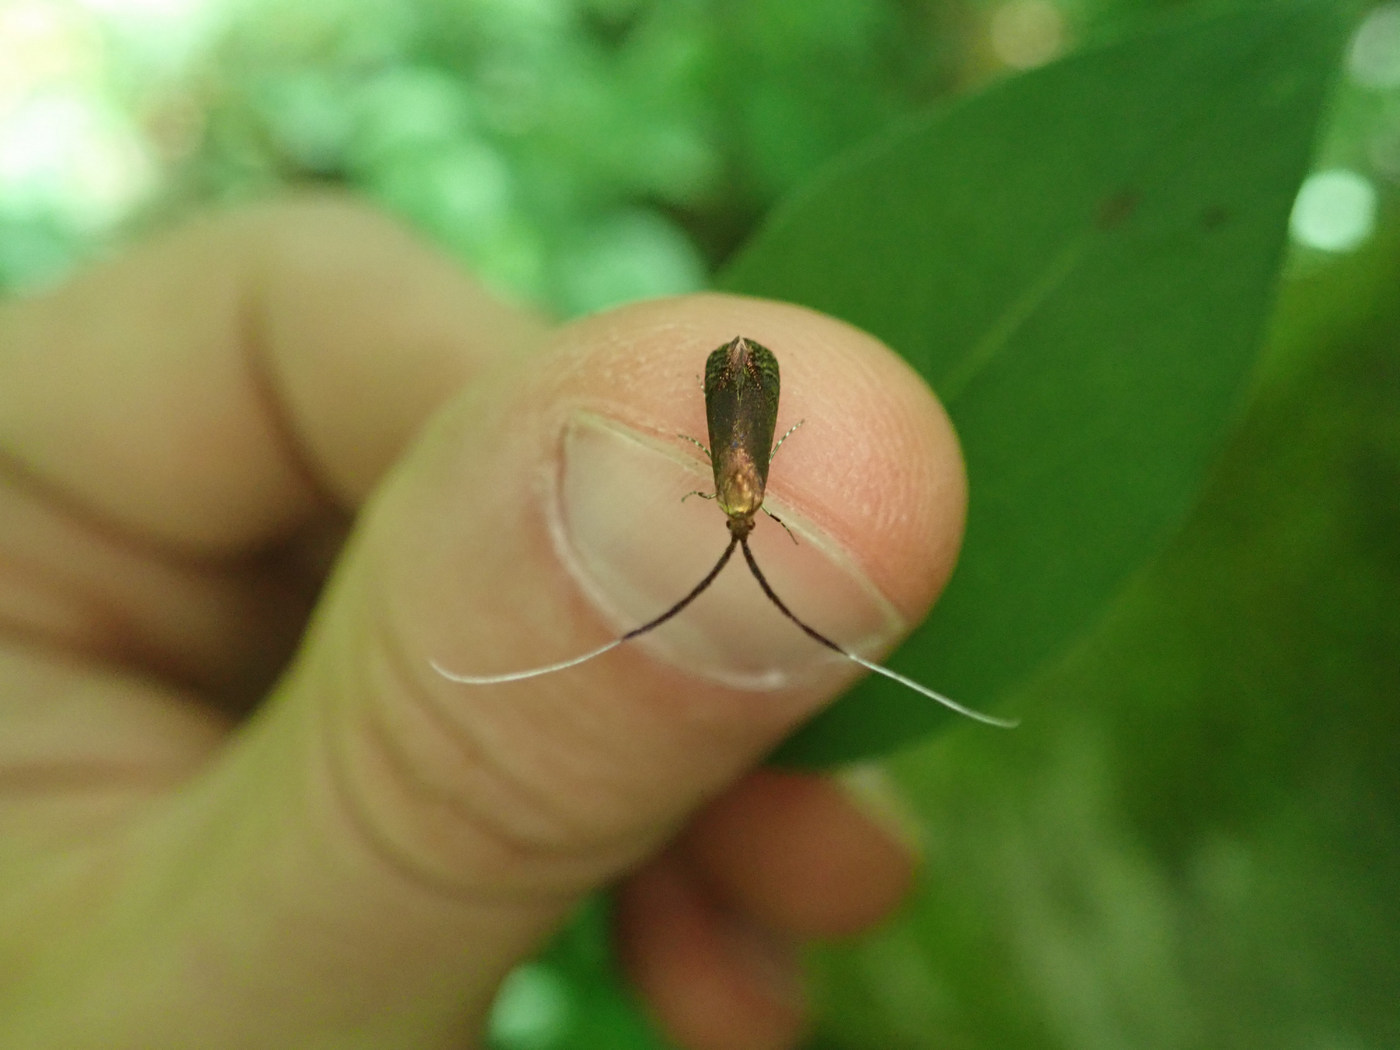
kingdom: Animalia
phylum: Arthropoda
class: Insecta
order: Lepidoptera
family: Adelidae
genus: Adela
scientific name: Adela caeruleella
